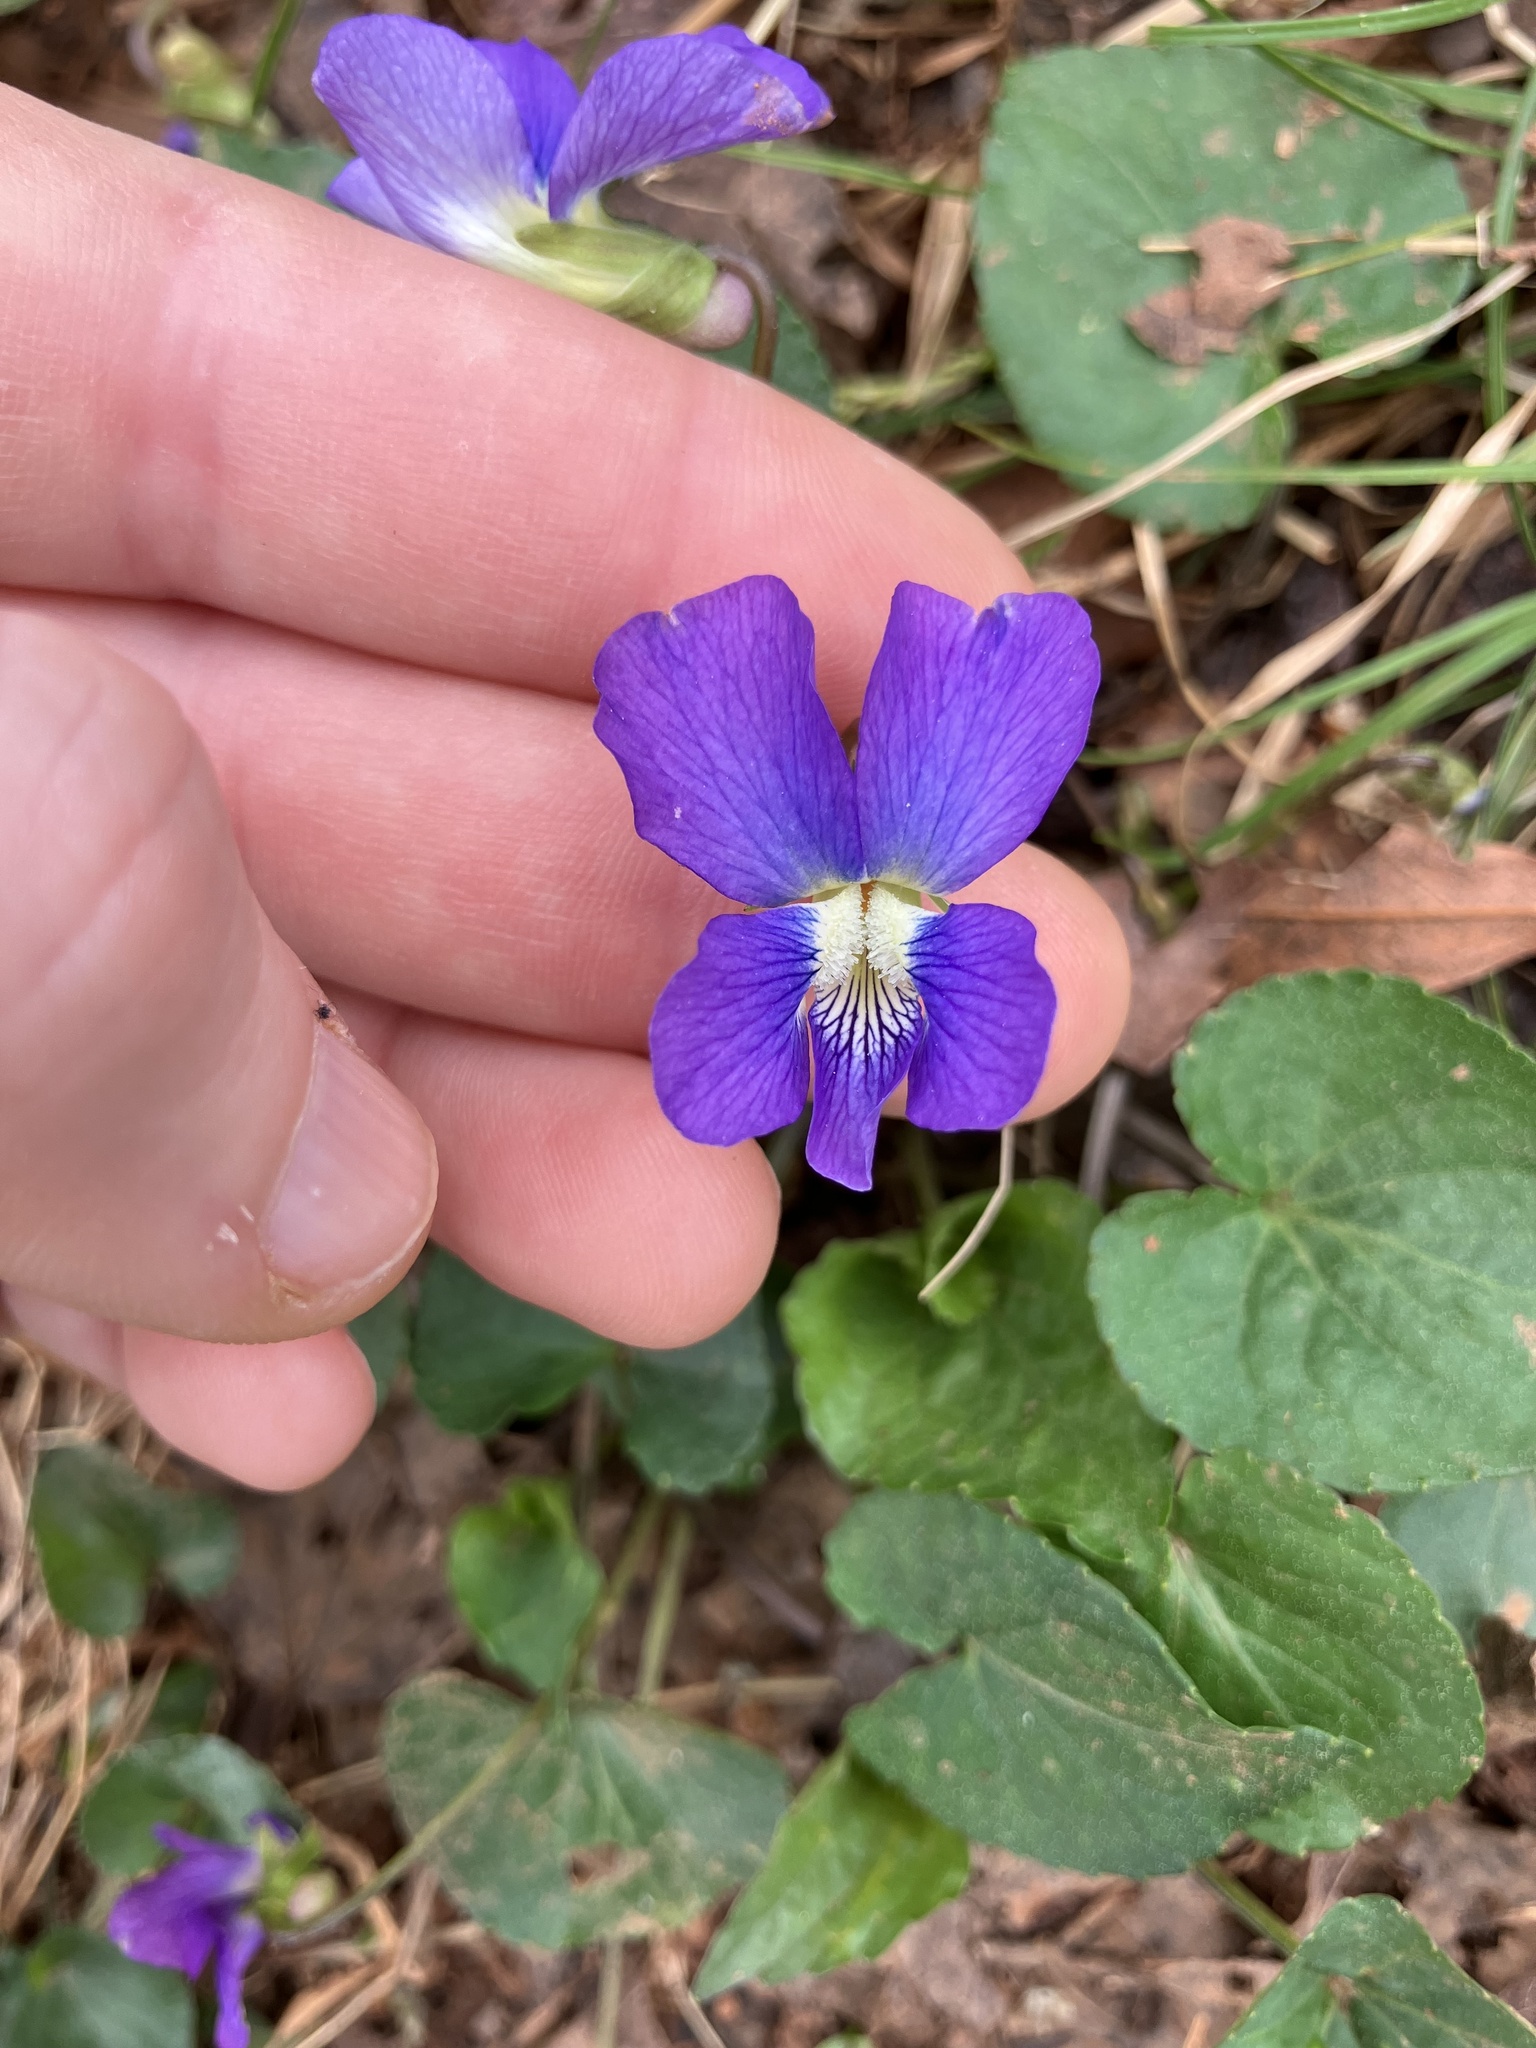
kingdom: Plantae
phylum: Tracheophyta
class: Magnoliopsida
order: Malpighiales
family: Violaceae
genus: Viola
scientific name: Viola cucullata
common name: Marsh blue violet
